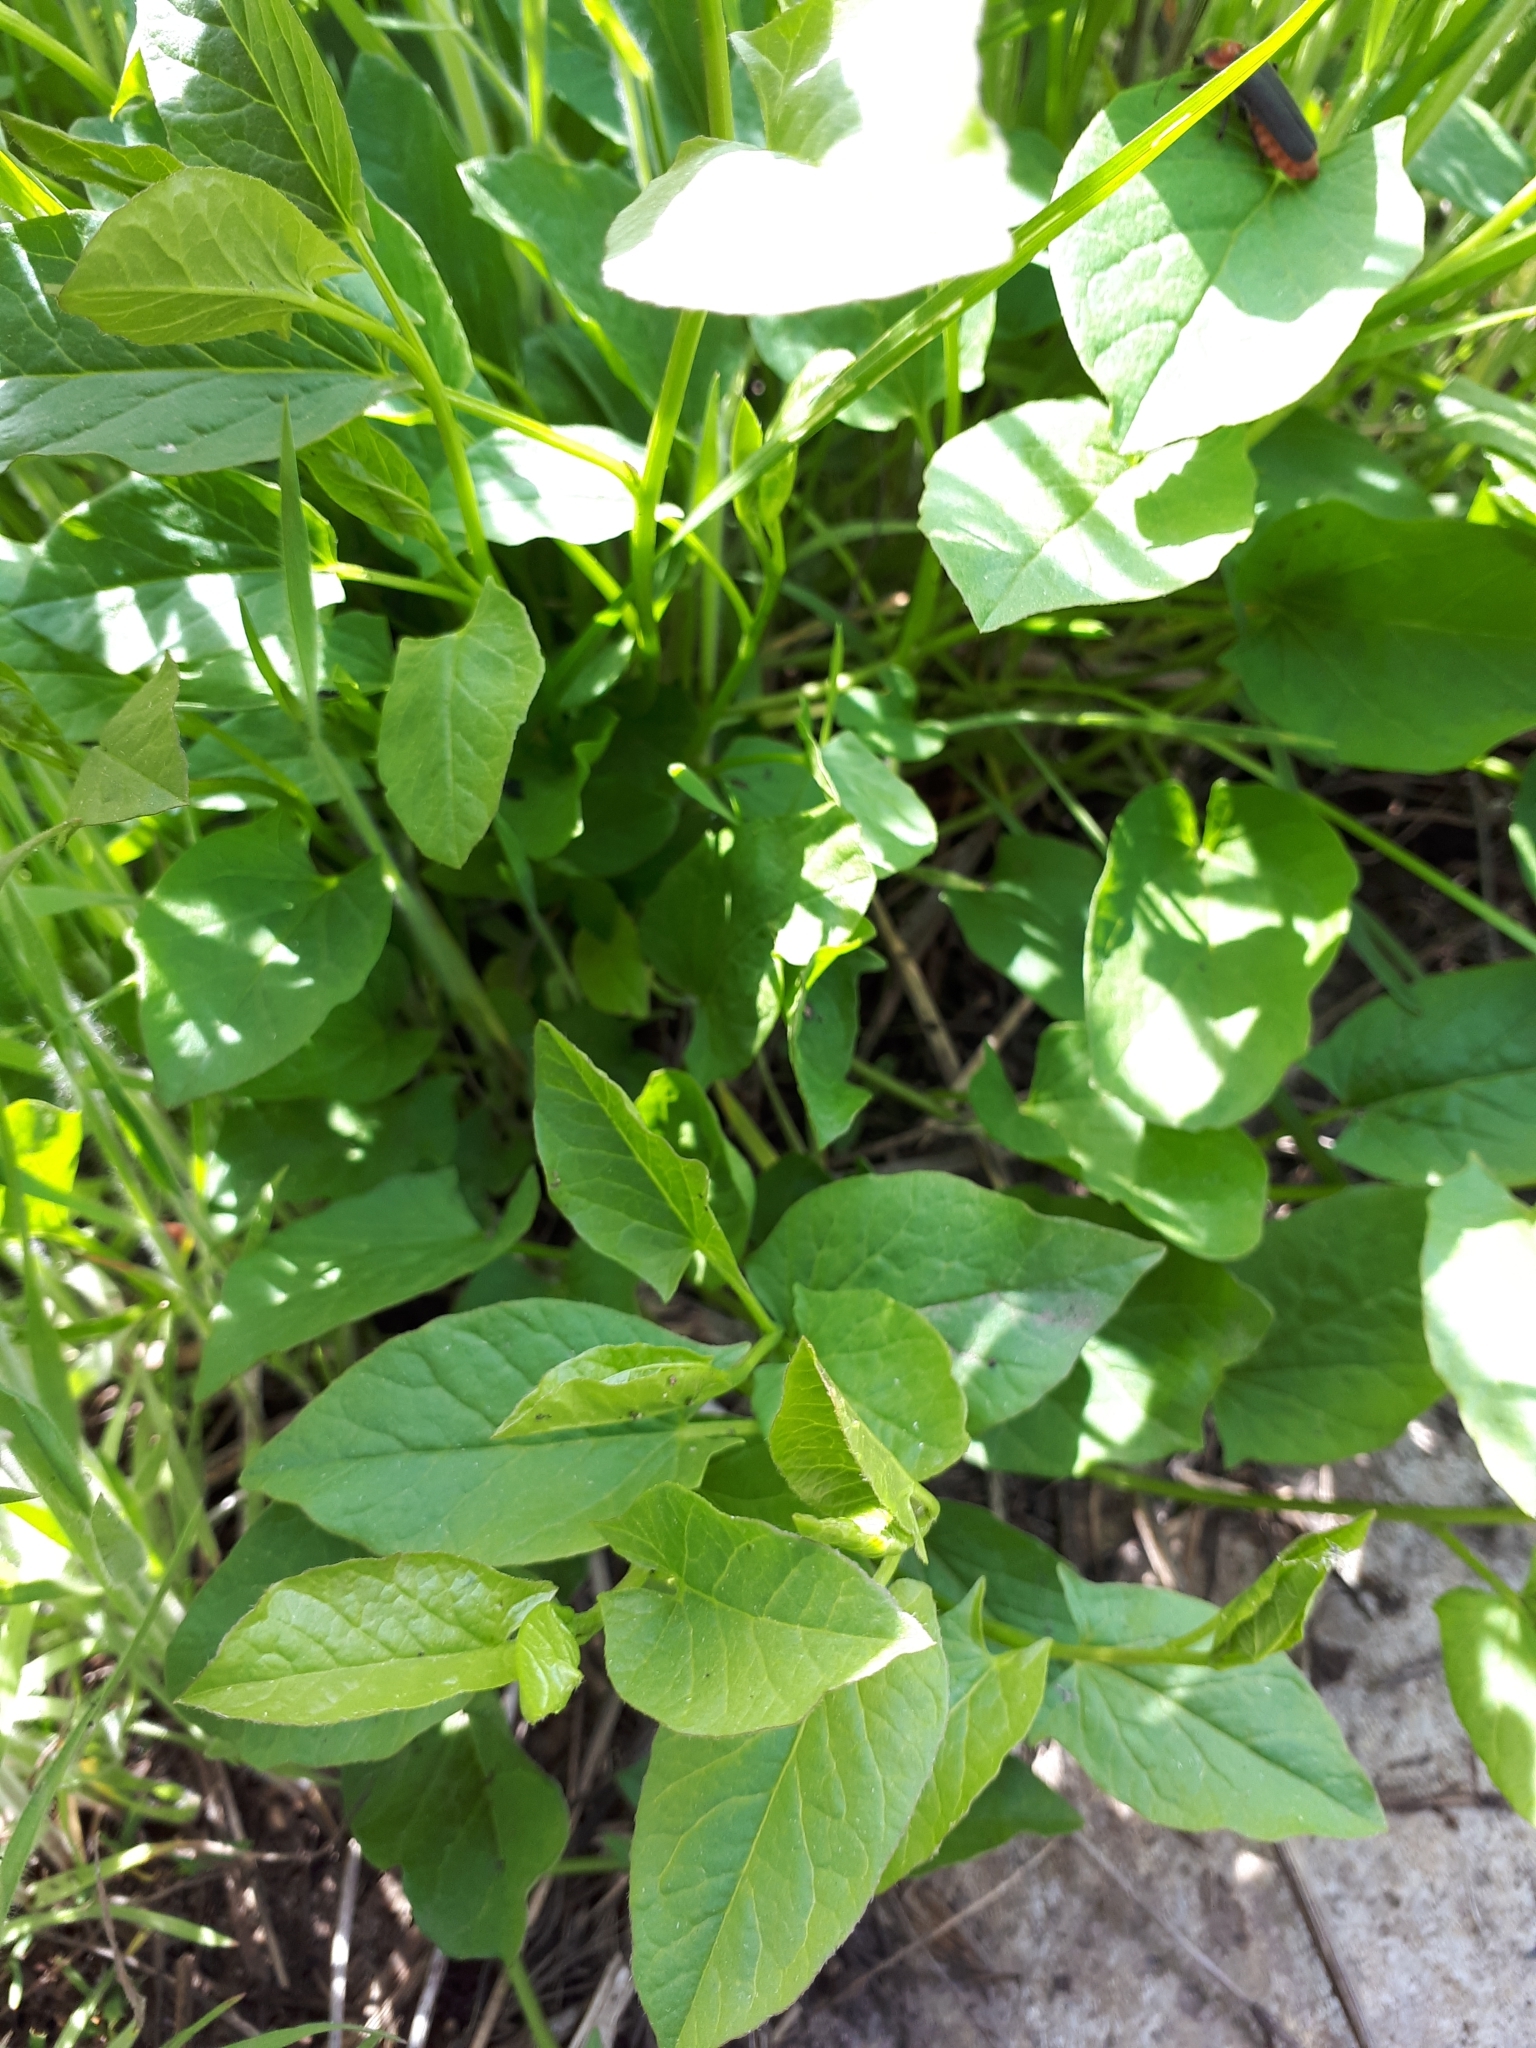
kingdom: Plantae
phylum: Tracheophyta
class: Magnoliopsida
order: Solanales
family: Convolvulaceae
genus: Convolvulus
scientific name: Convolvulus arvensis
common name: Field bindweed
